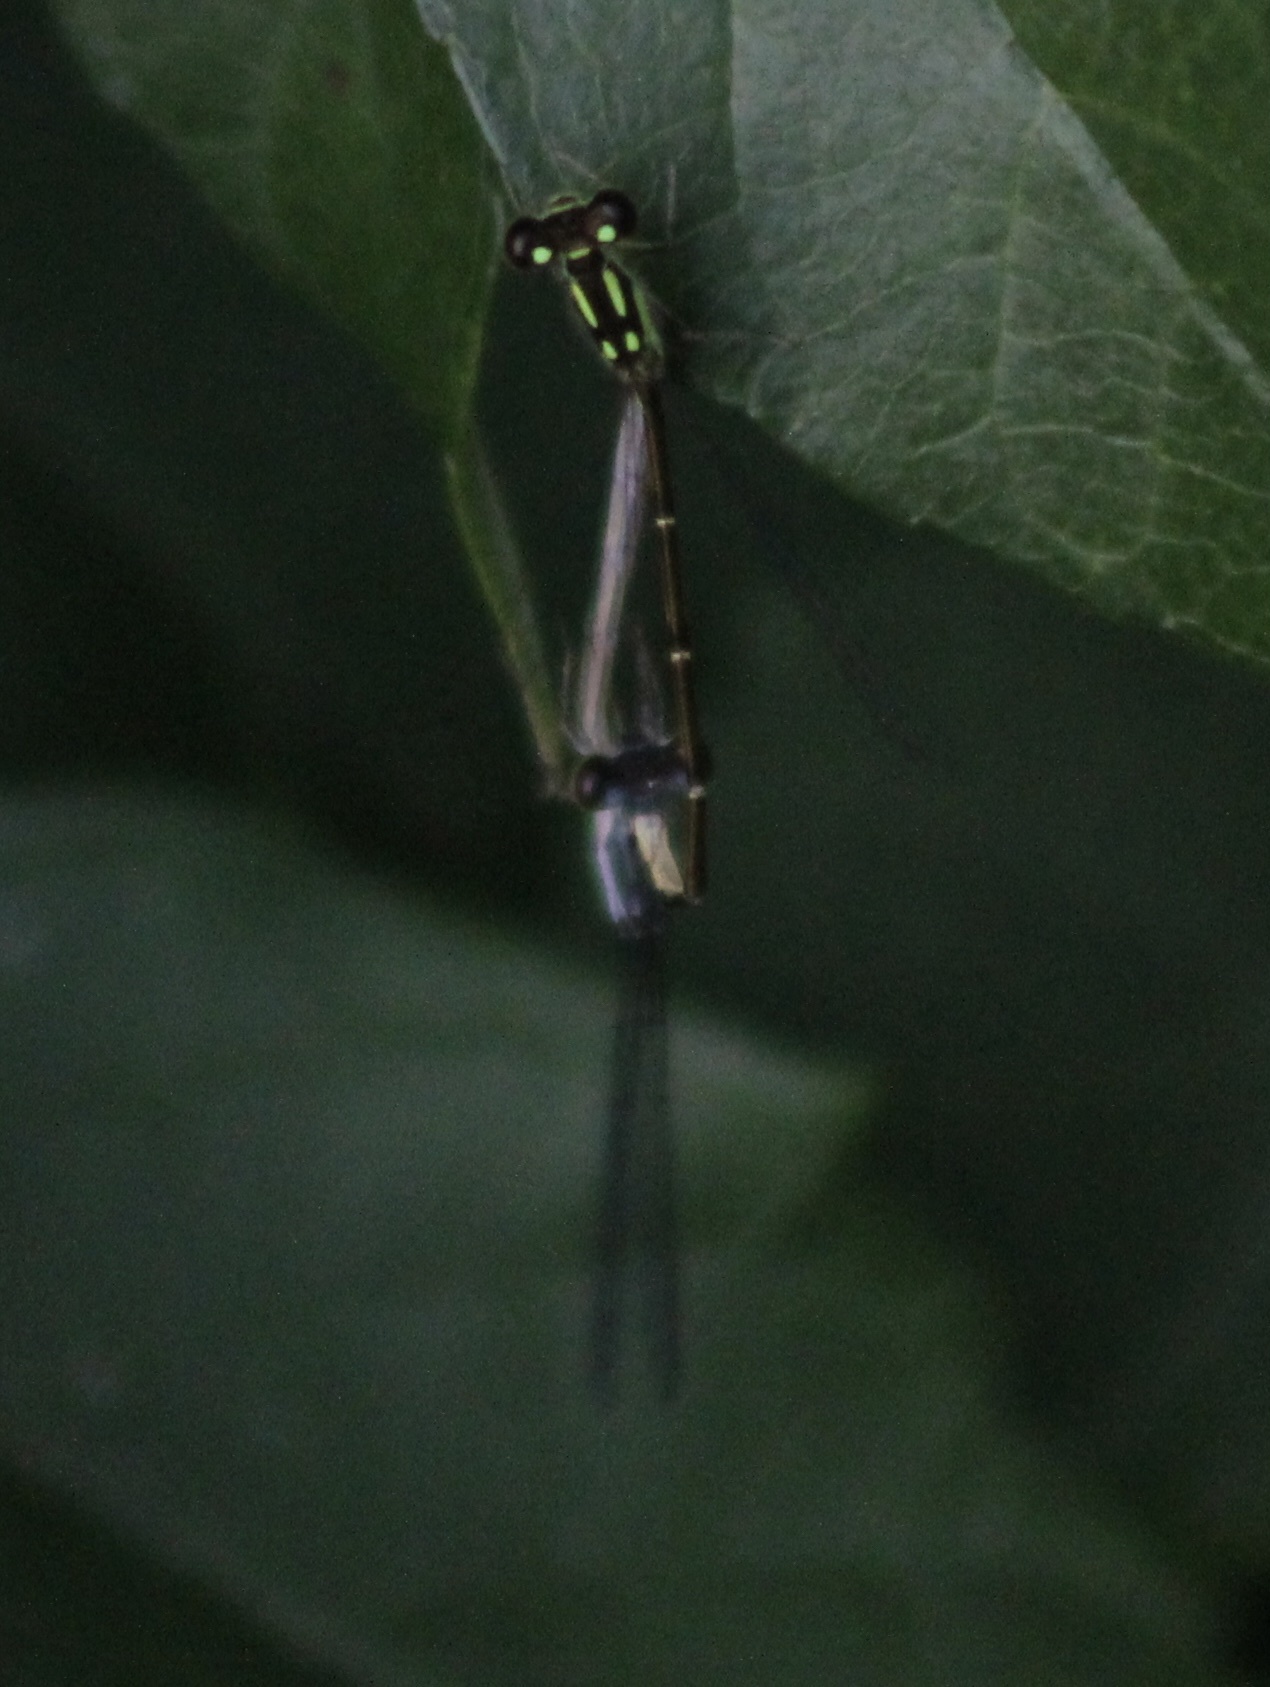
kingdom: Animalia
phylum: Arthropoda
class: Insecta
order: Odonata
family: Coenagrionidae
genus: Ischnura
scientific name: Ischnura posita
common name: Fragile forktail
